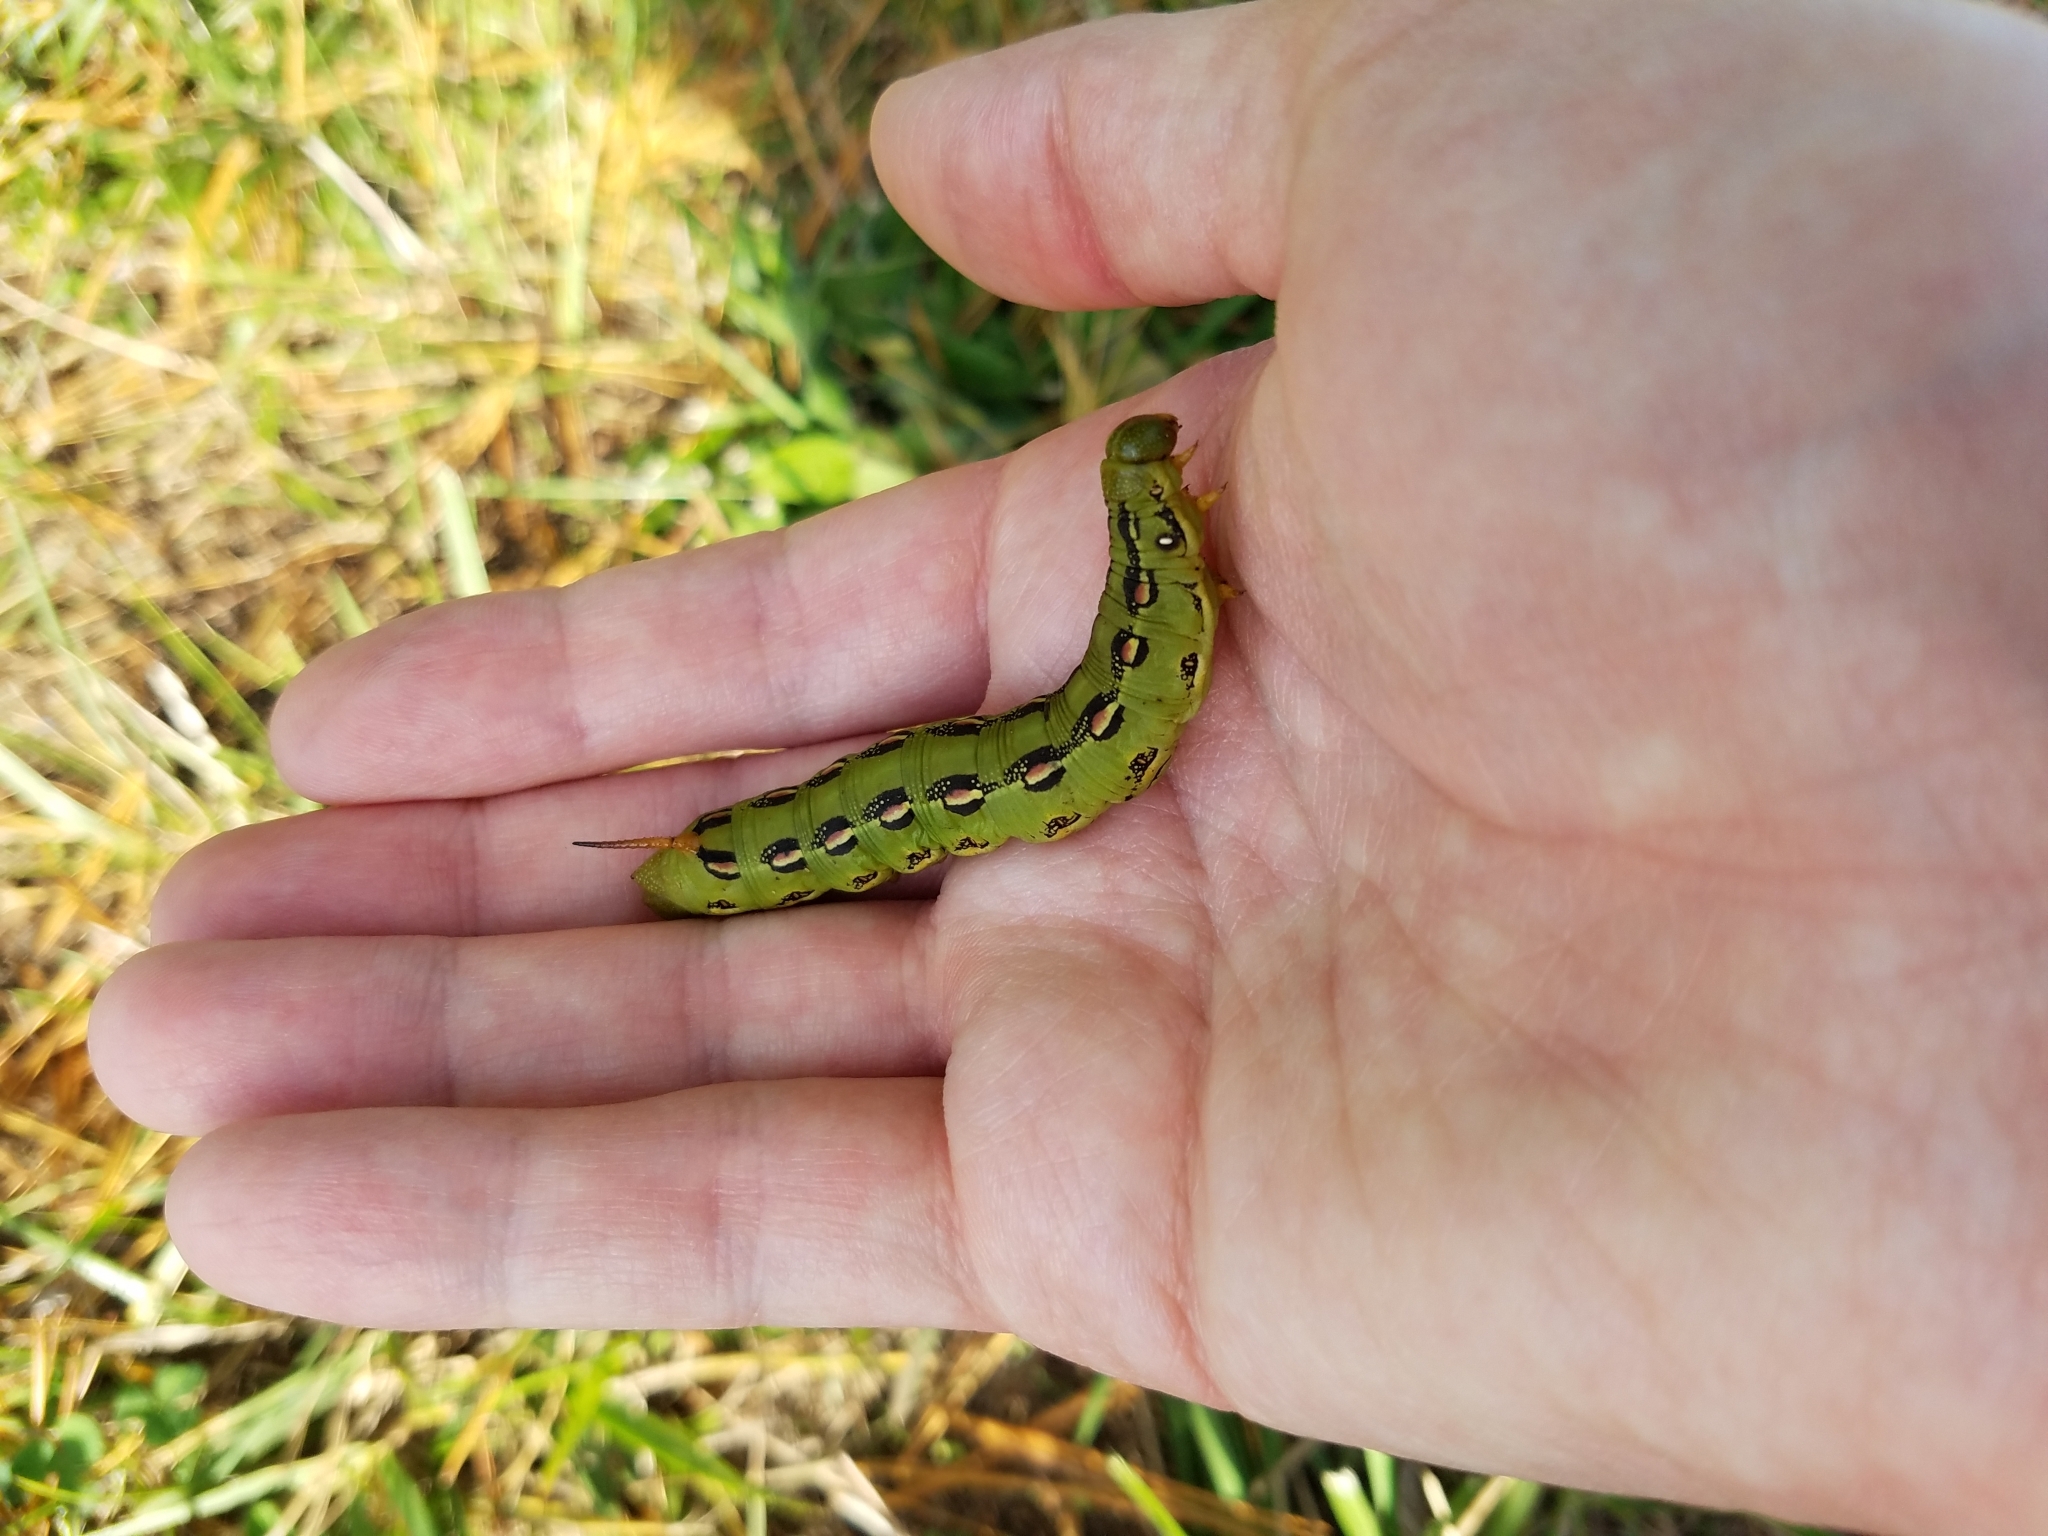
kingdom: Animalia
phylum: Arthropoda
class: Insecta
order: Lepidoptera
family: Sphingidae
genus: Hyles
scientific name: Hyles lineata
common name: White-lined sphinx
